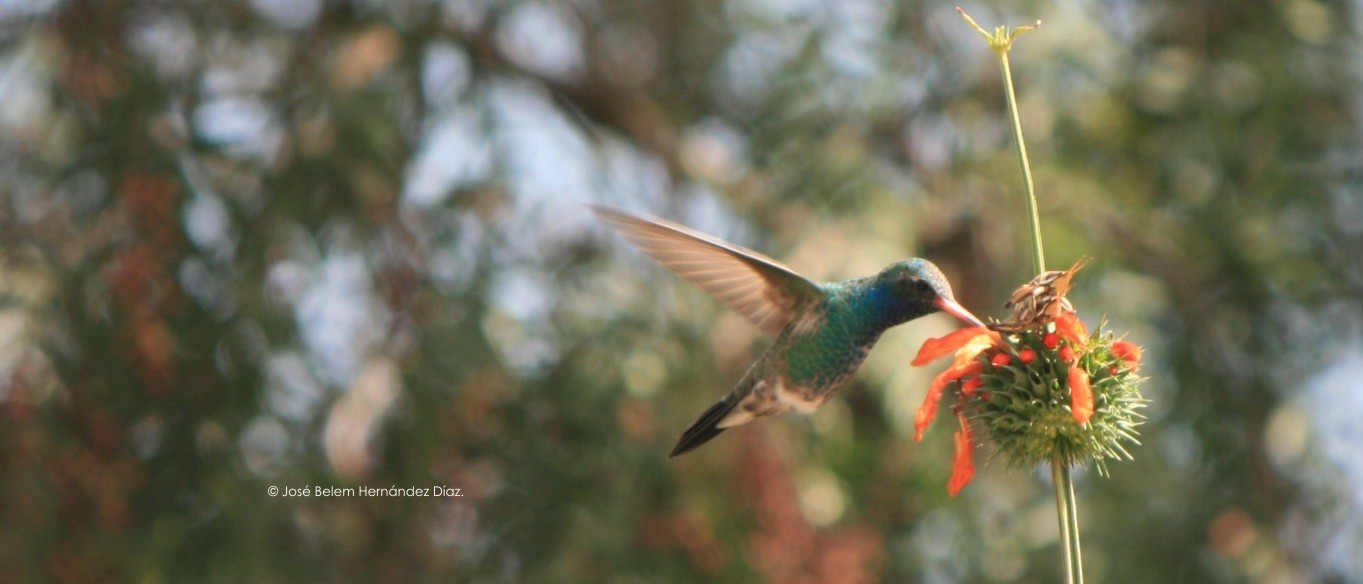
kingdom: Animalia
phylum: Chordata
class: Aves
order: Apodiformes
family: Trochilidae
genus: Cynanthus
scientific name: Cynanthus latirostris
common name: Broad-billed hummingbird
